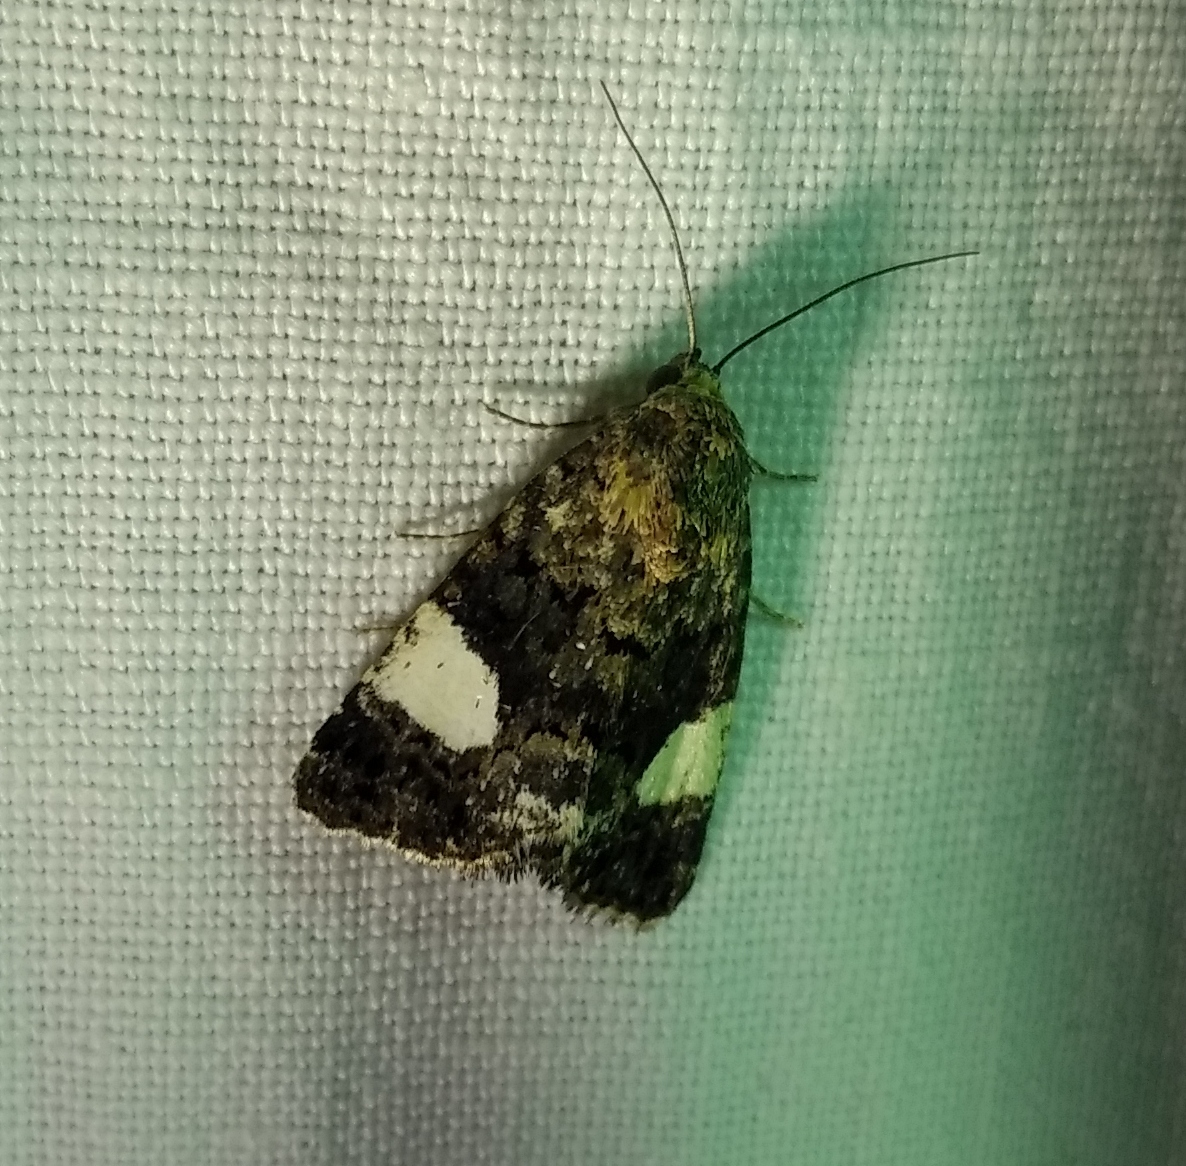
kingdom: Animalia
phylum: Arthropoda
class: Insecta
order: Lepidoptera
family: Erebidae
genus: Tyta
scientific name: Tyta luctuosa
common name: Four-spotted
